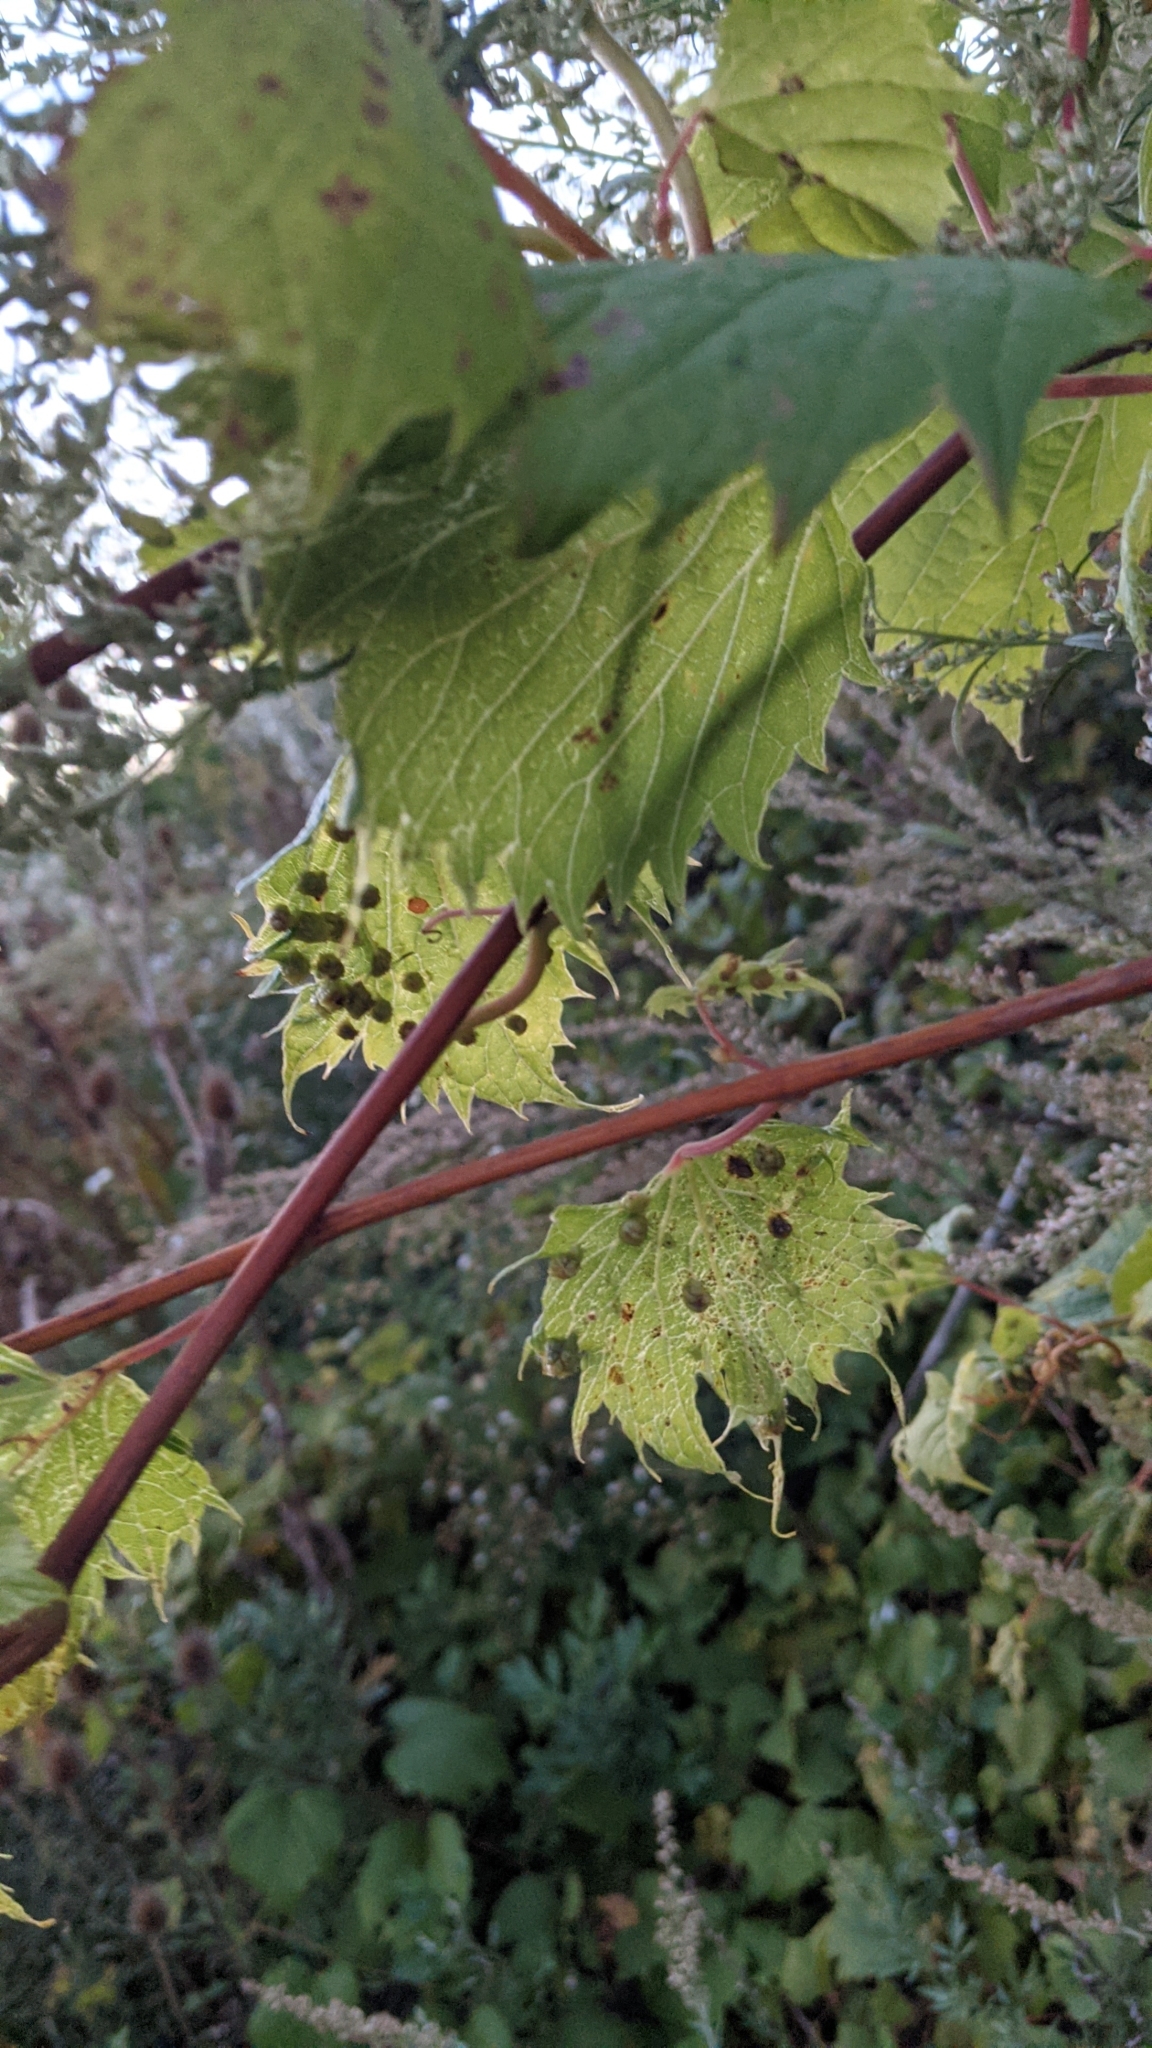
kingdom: Animalia
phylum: Arthropoda
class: Insecta
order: Hemiptera
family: Phylloxeridae
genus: Daktulosphaira
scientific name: Daktulosphaira vitifoliae
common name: Grape phylloxera
